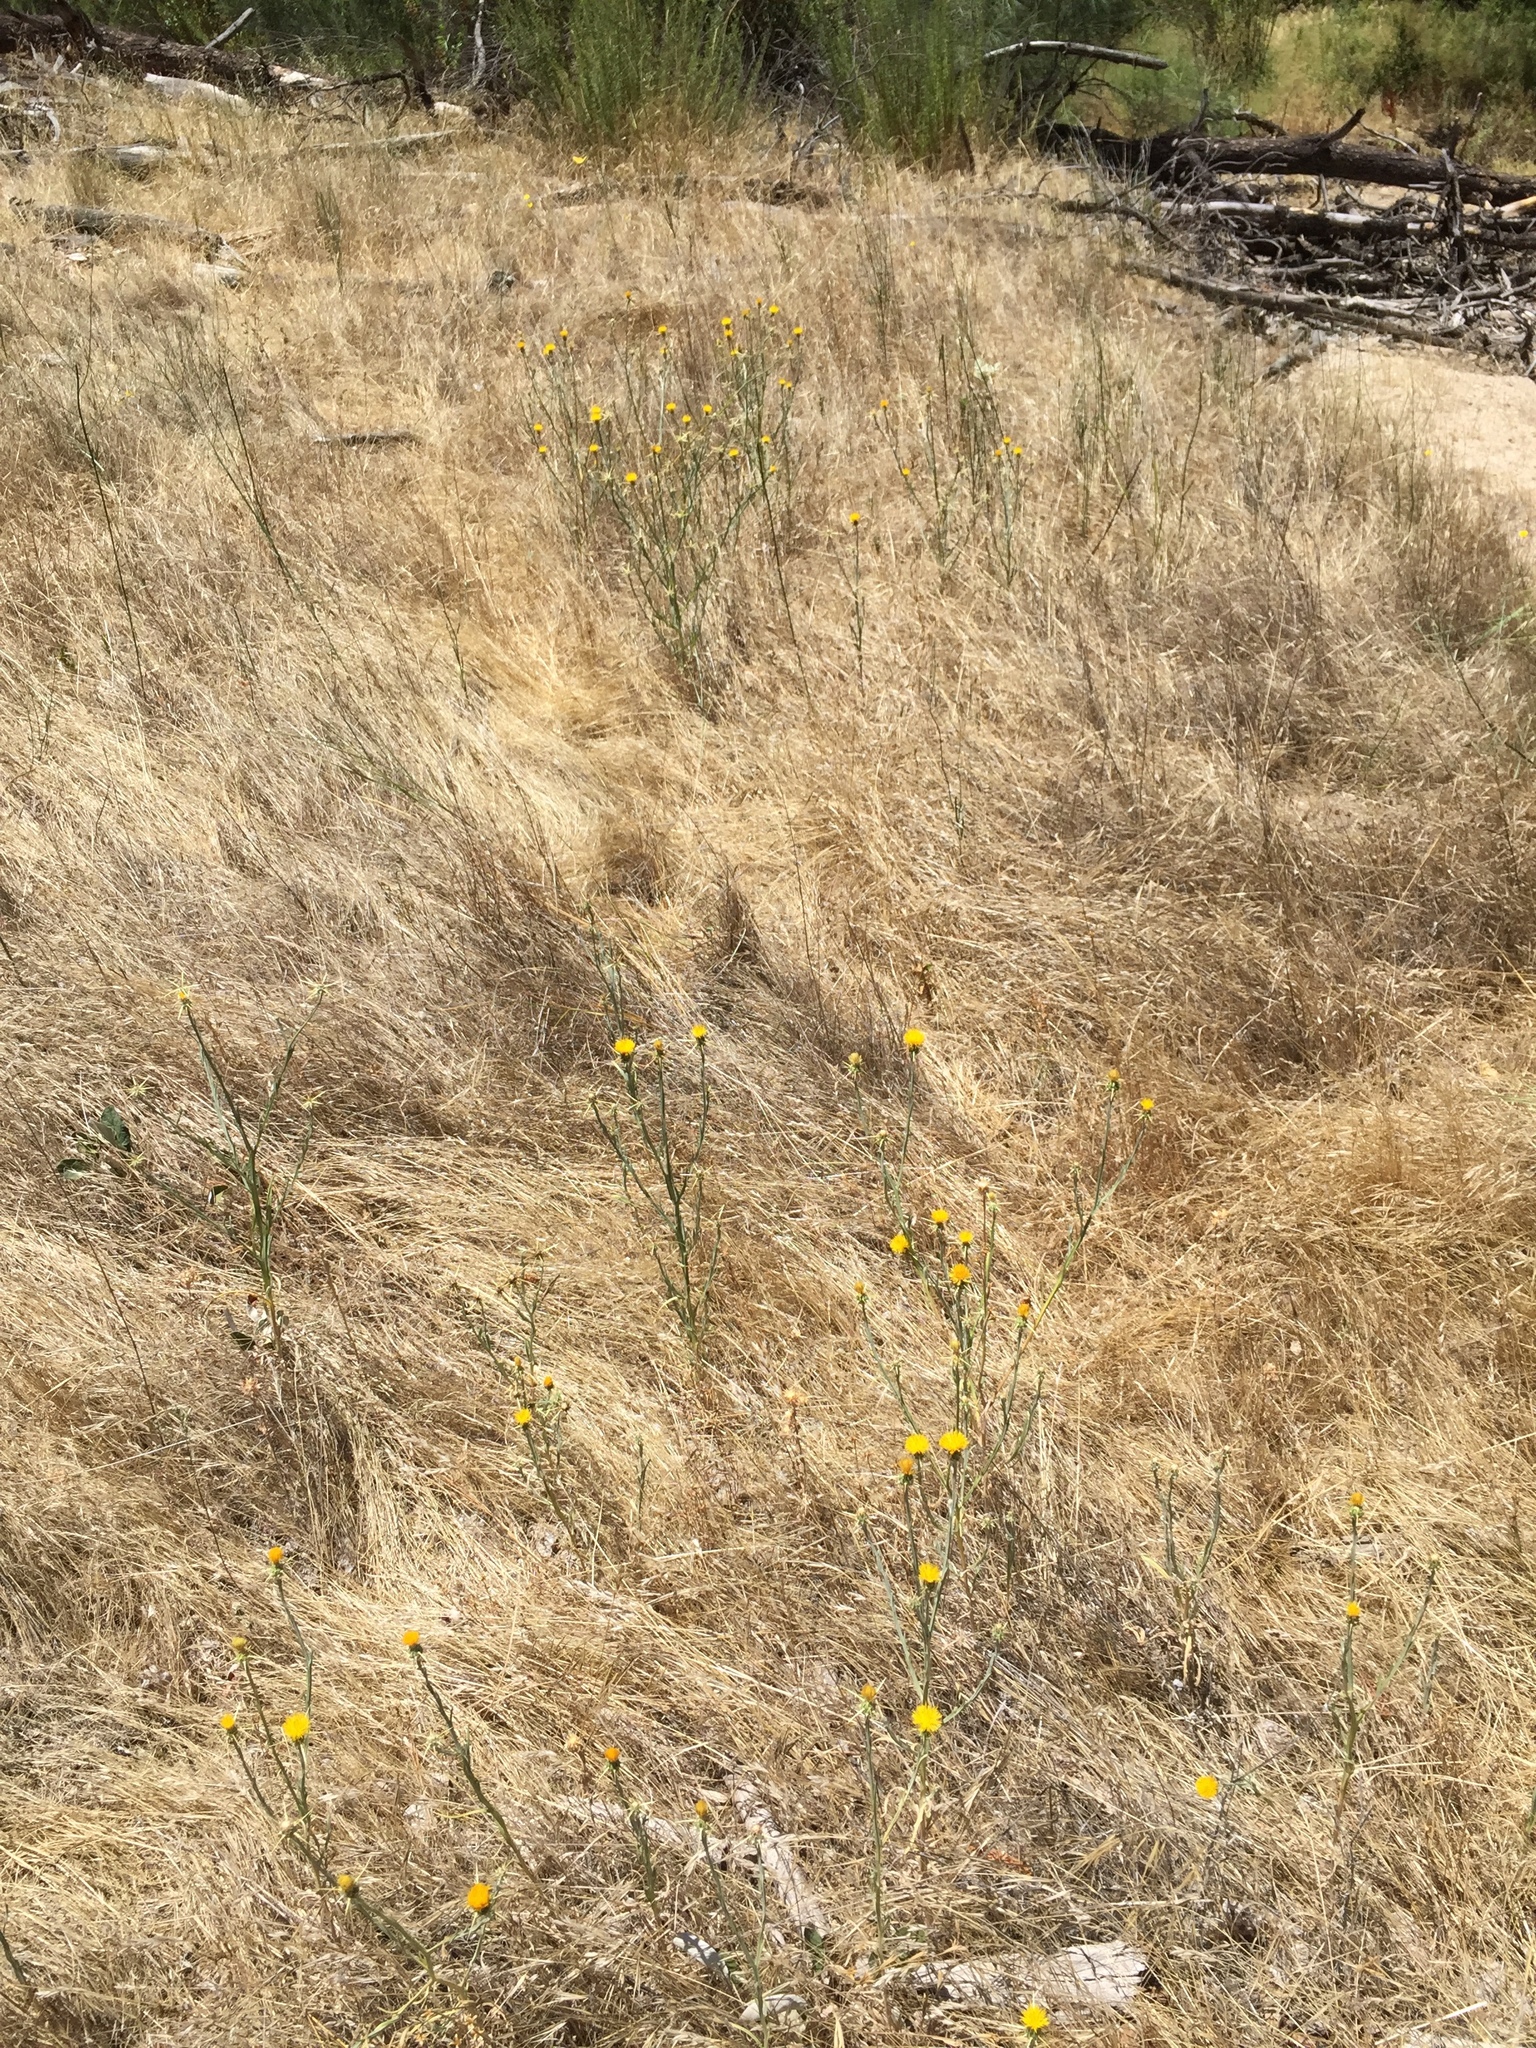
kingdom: Plantae
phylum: Tracheophyta
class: Magnoliopsida
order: Asterales
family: Asteraceae
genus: Centaurea
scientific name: Centaurea solstitialis
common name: Yellow star-thistle
